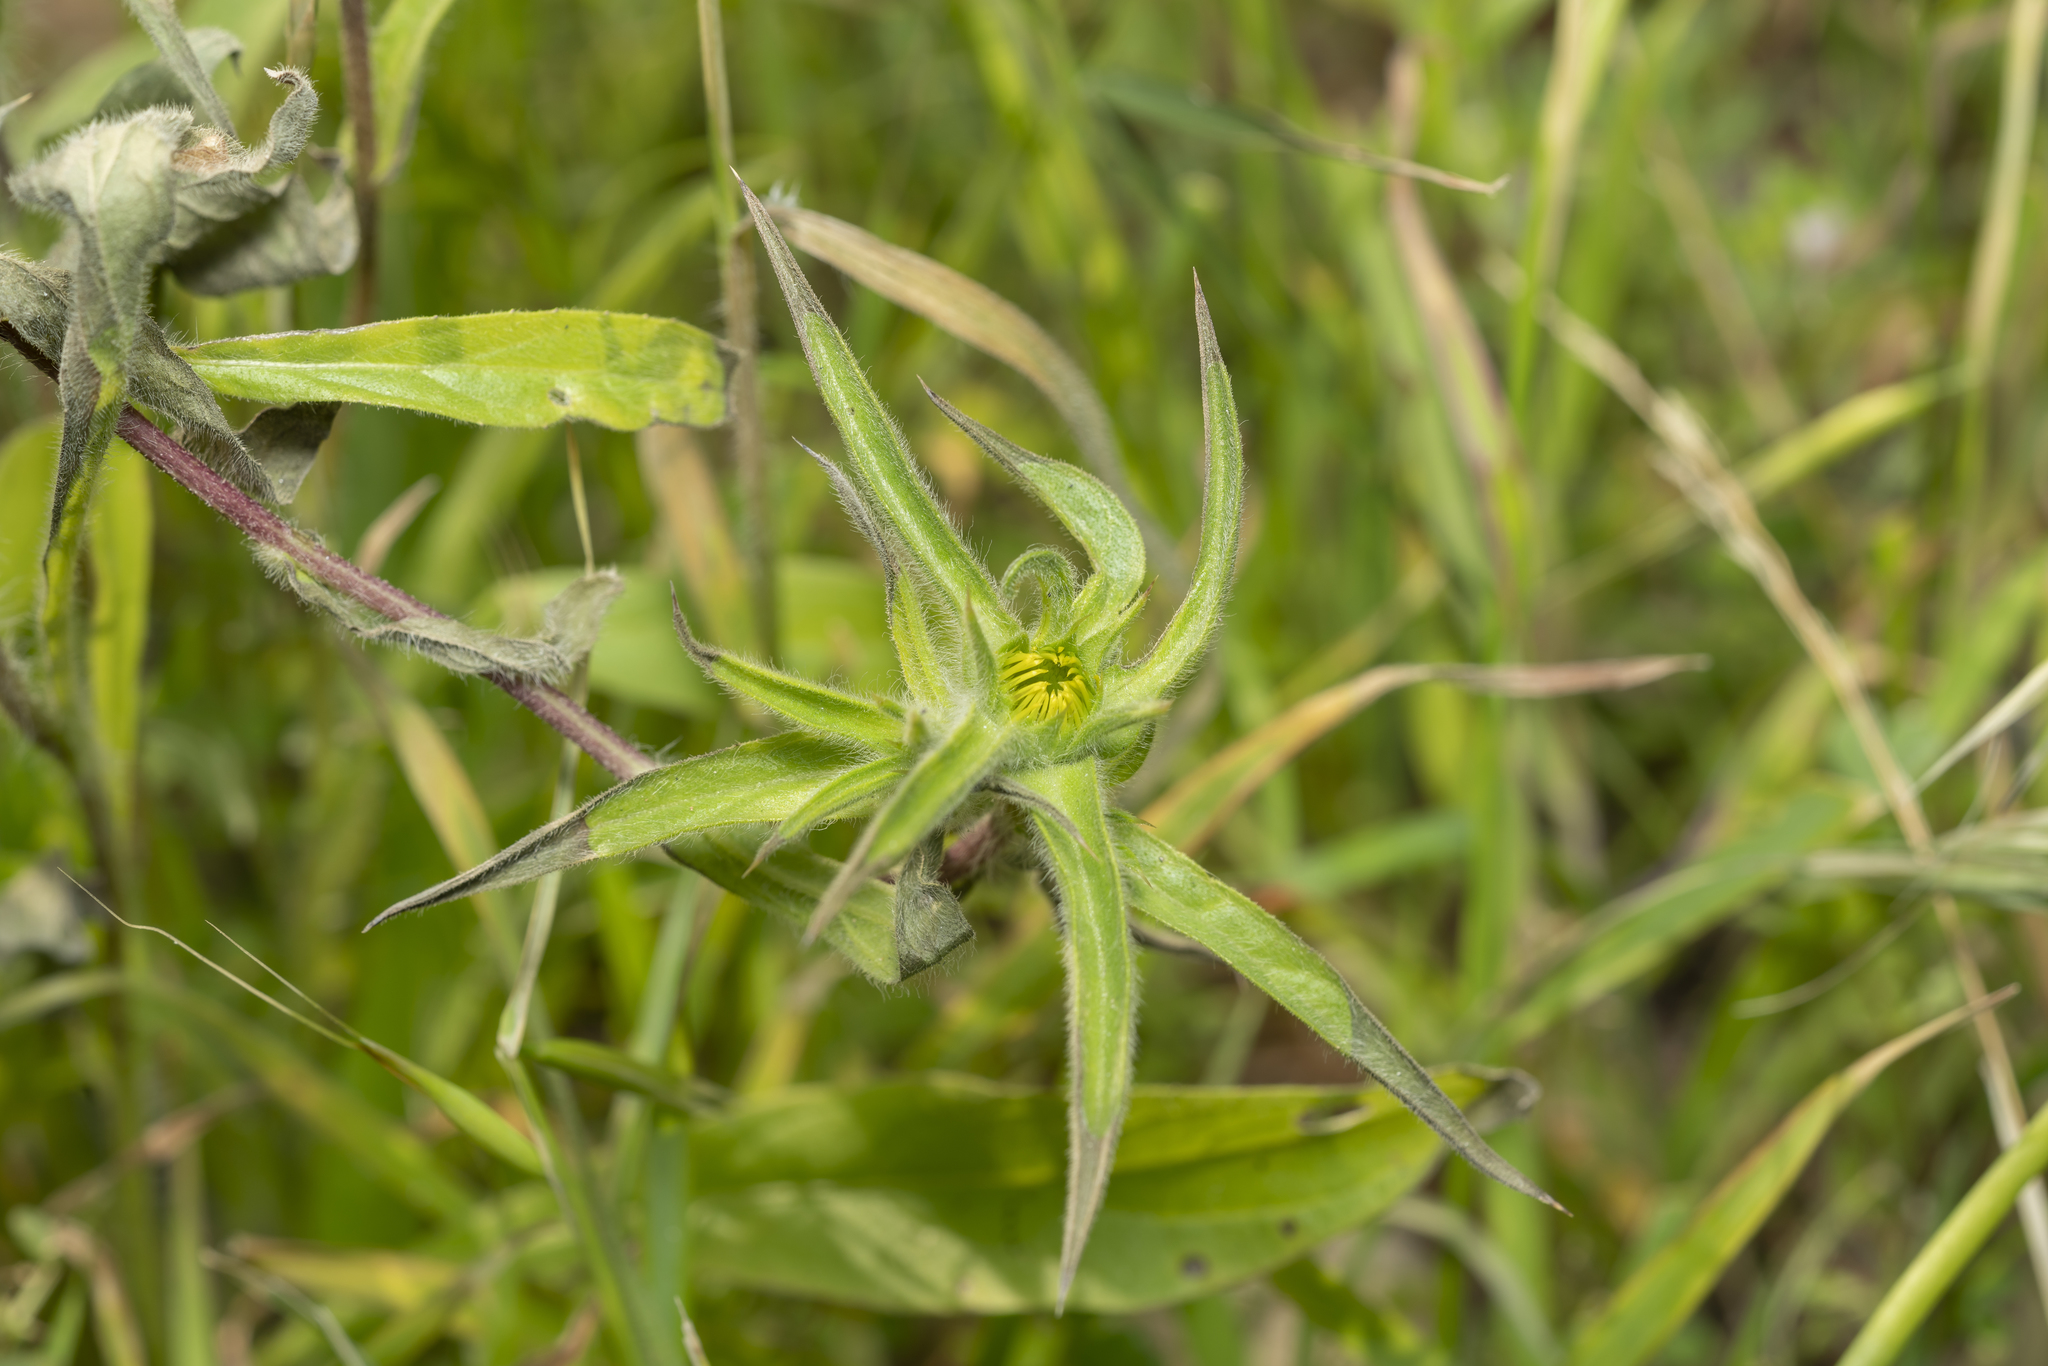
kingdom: Plantae
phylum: Tracheophyta
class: Magnoliopsida
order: Asterales
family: Asteraceae
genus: Pallenis
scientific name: Pallenis spinosa
